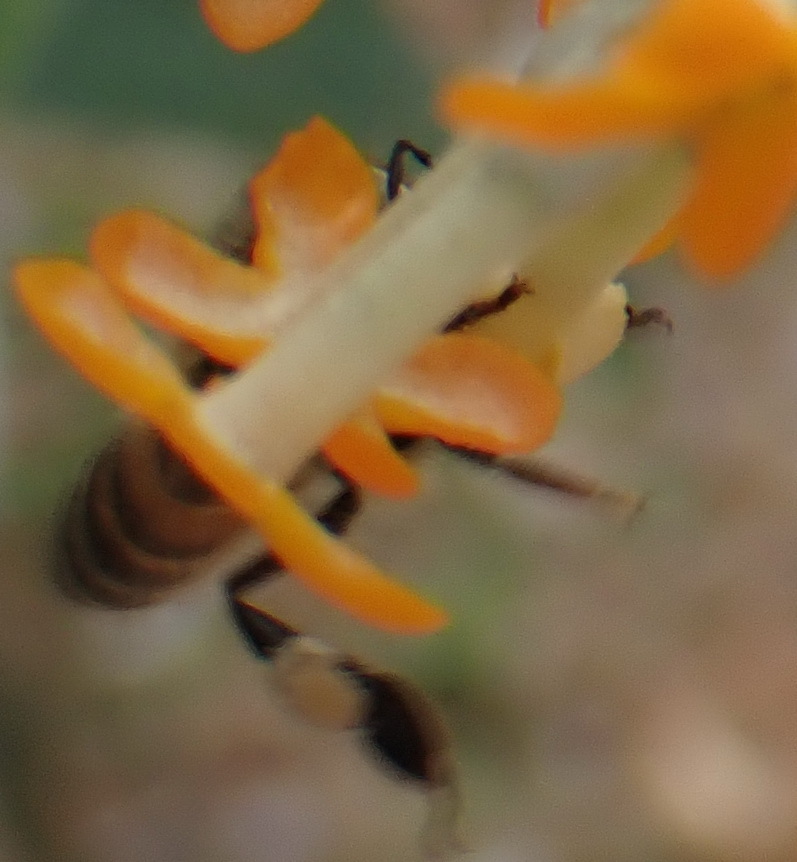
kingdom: Animalia
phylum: Arthropoda
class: Insecta
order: Hymenoptera
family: Apidae
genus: Apis
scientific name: Apis mellifera
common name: Honey bee
